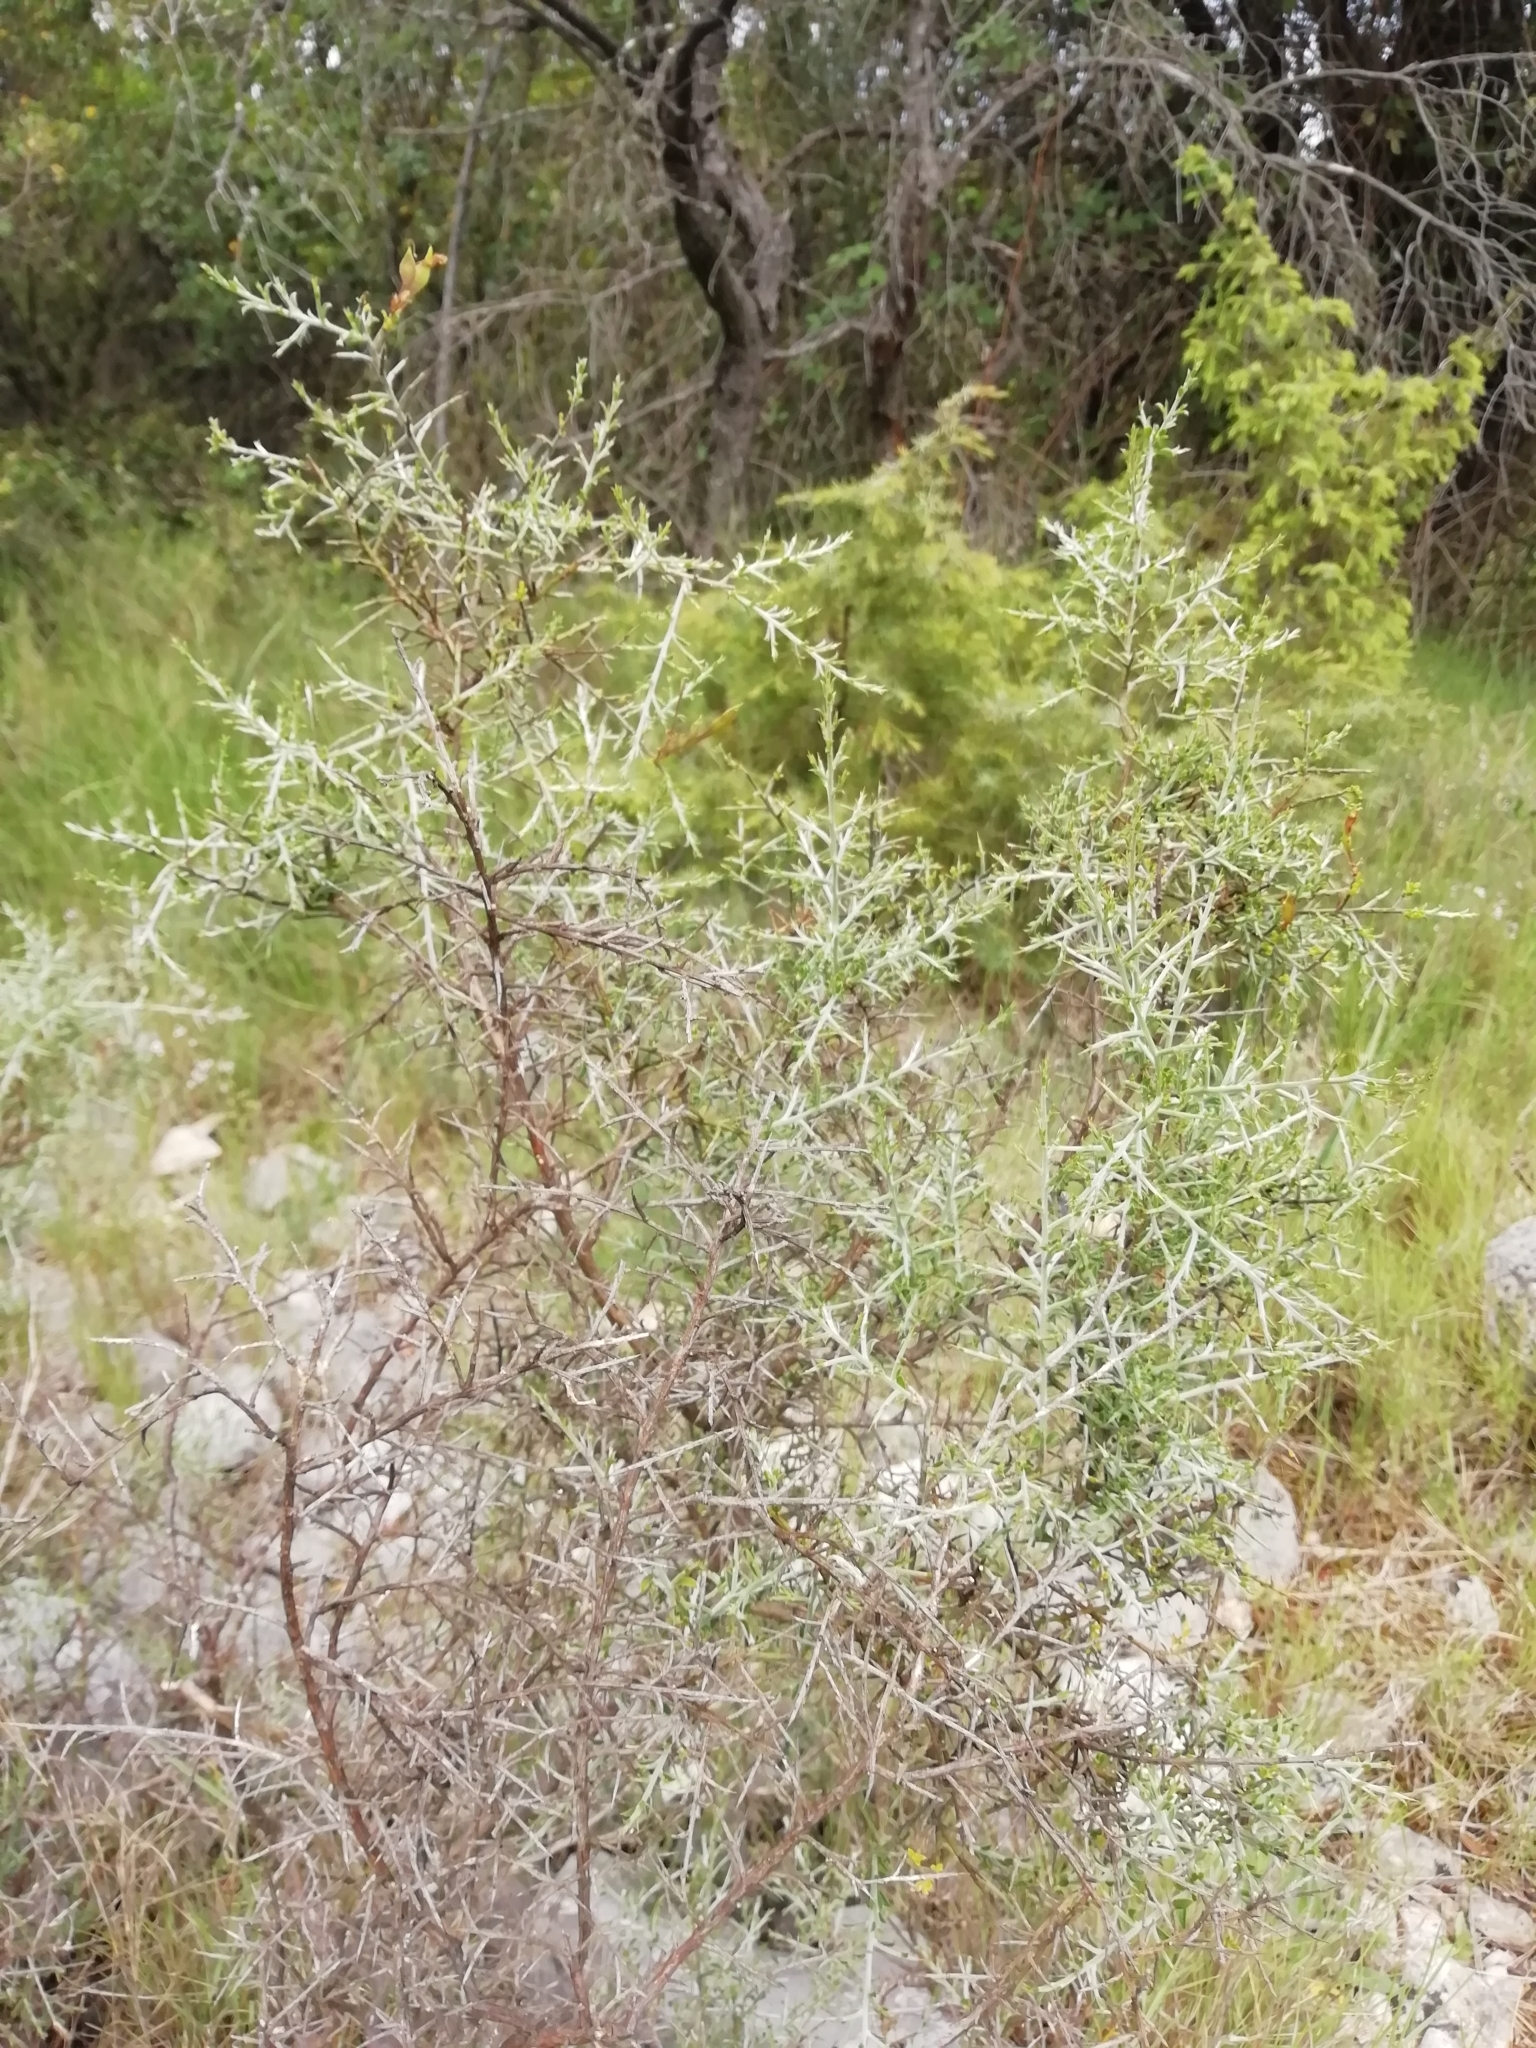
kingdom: Plantae
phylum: Tracheophyta
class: Magnoliopsida
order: Fabales
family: Fabaceae
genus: Genista
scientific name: Genista scorpius
